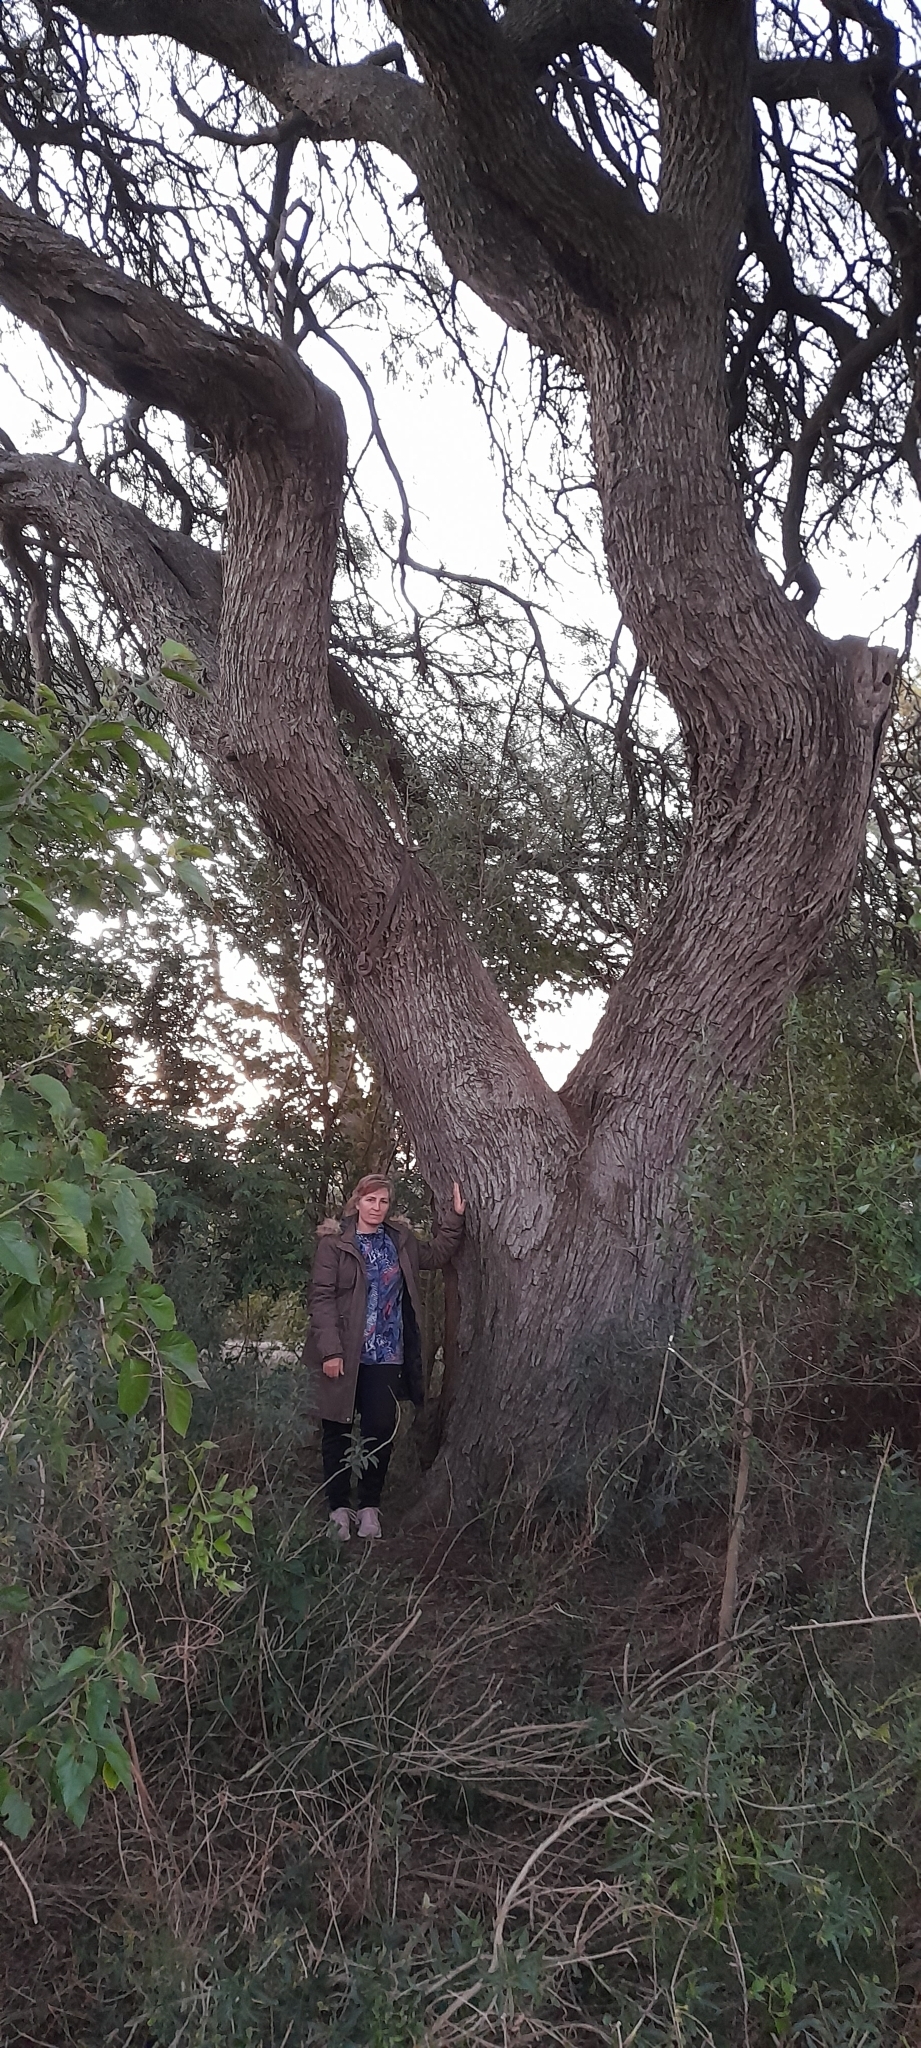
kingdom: Plantae
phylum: Tracheophyta
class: Magnoliopsida
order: Fabales
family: Fabaceae
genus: Prosopis
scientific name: Prosopis alba
